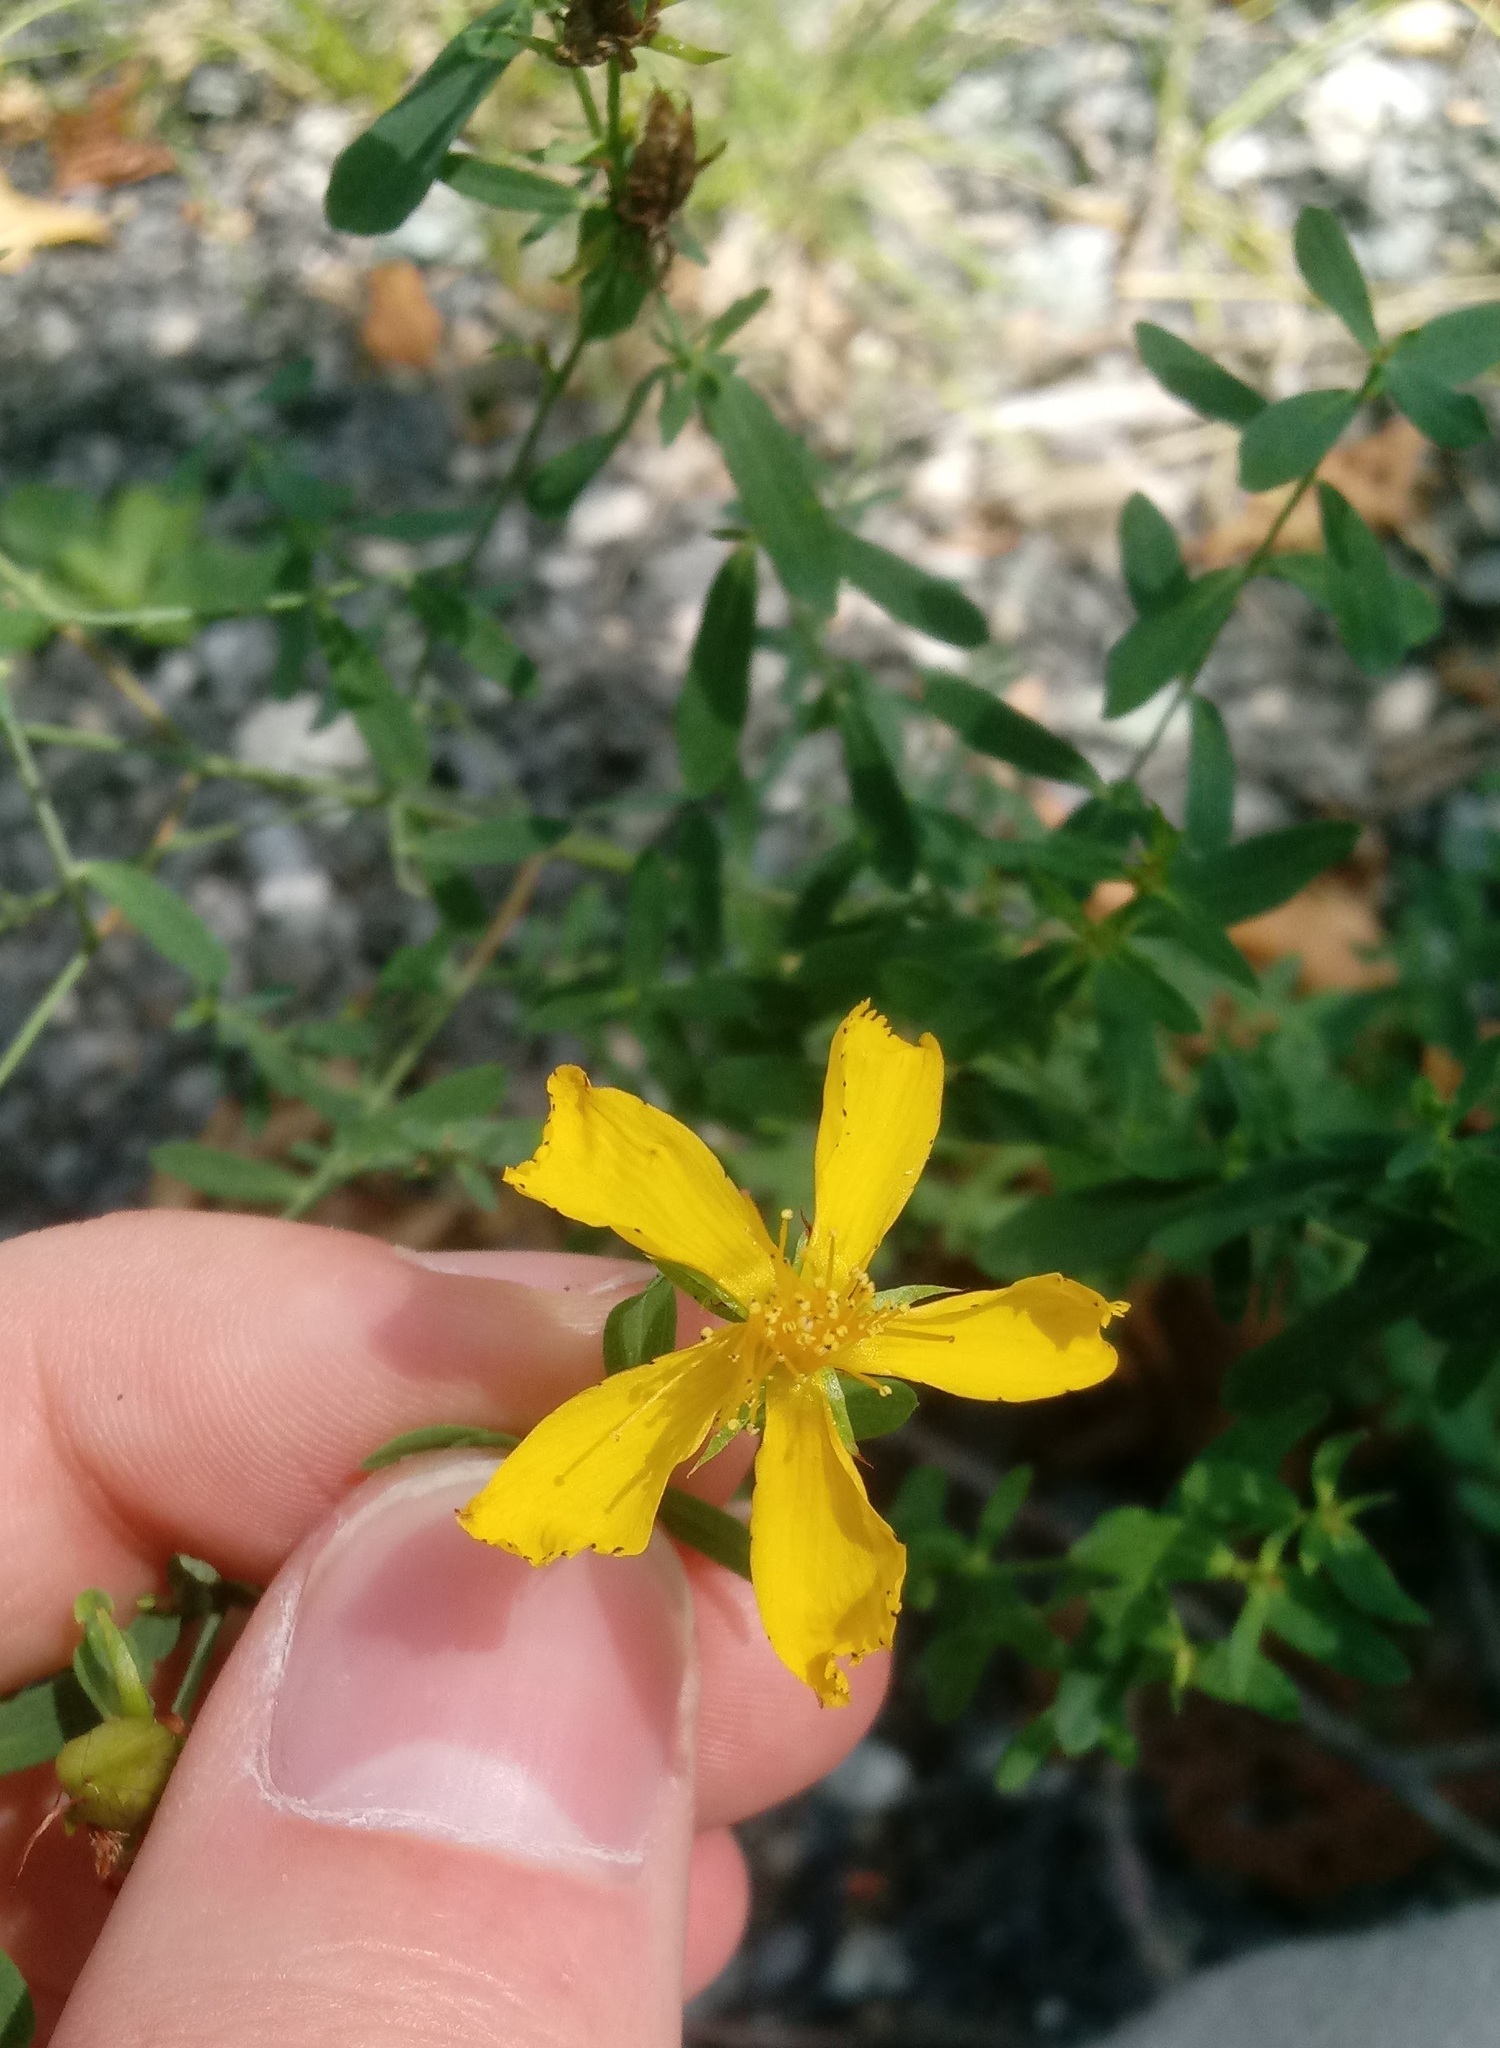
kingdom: Plantae
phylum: Tracheophyta
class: Magnoliopsida
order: Malpighiales
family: Hypericaceae
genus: Hypericum
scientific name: Hypericum perforatum
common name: Common st. johnswort
